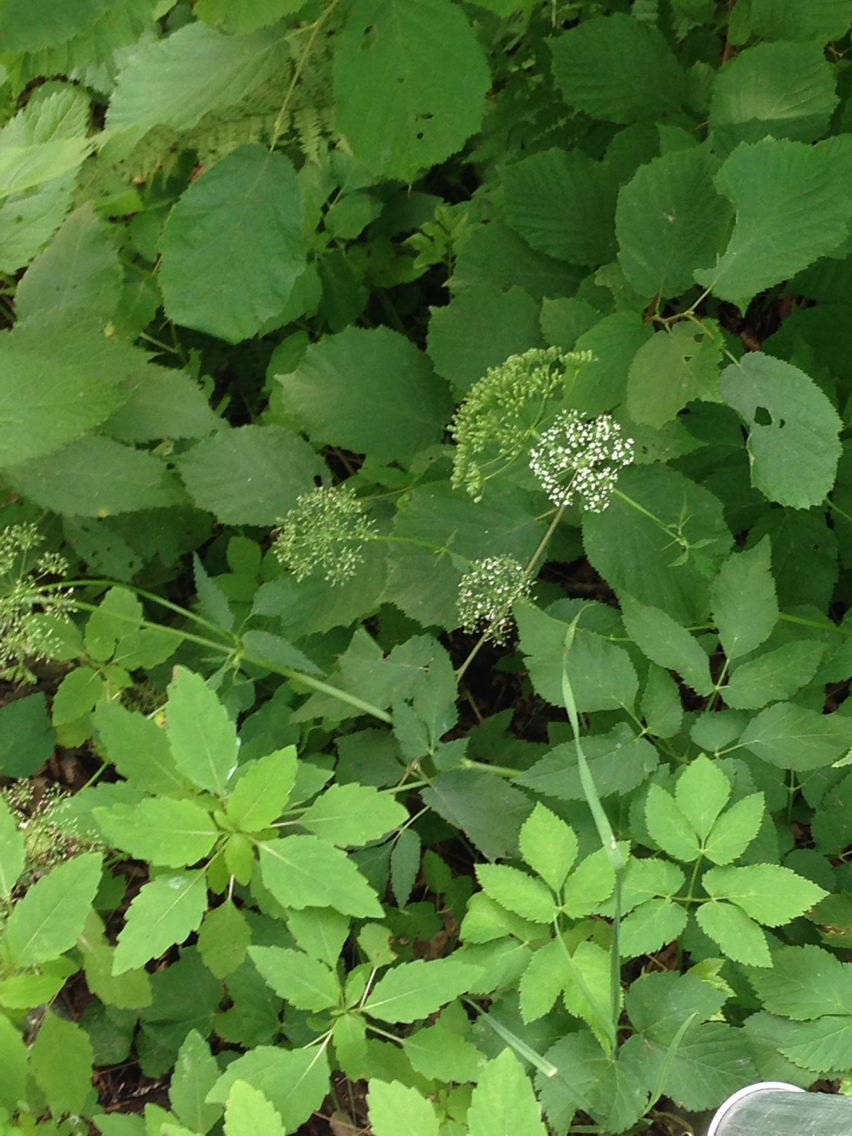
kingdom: Plantae
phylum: Tracheophyta
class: Magnoliopsida
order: Apiales
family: Apiaceae
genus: Aegopodium
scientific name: Aegopodium podagraria
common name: Ground-elder
